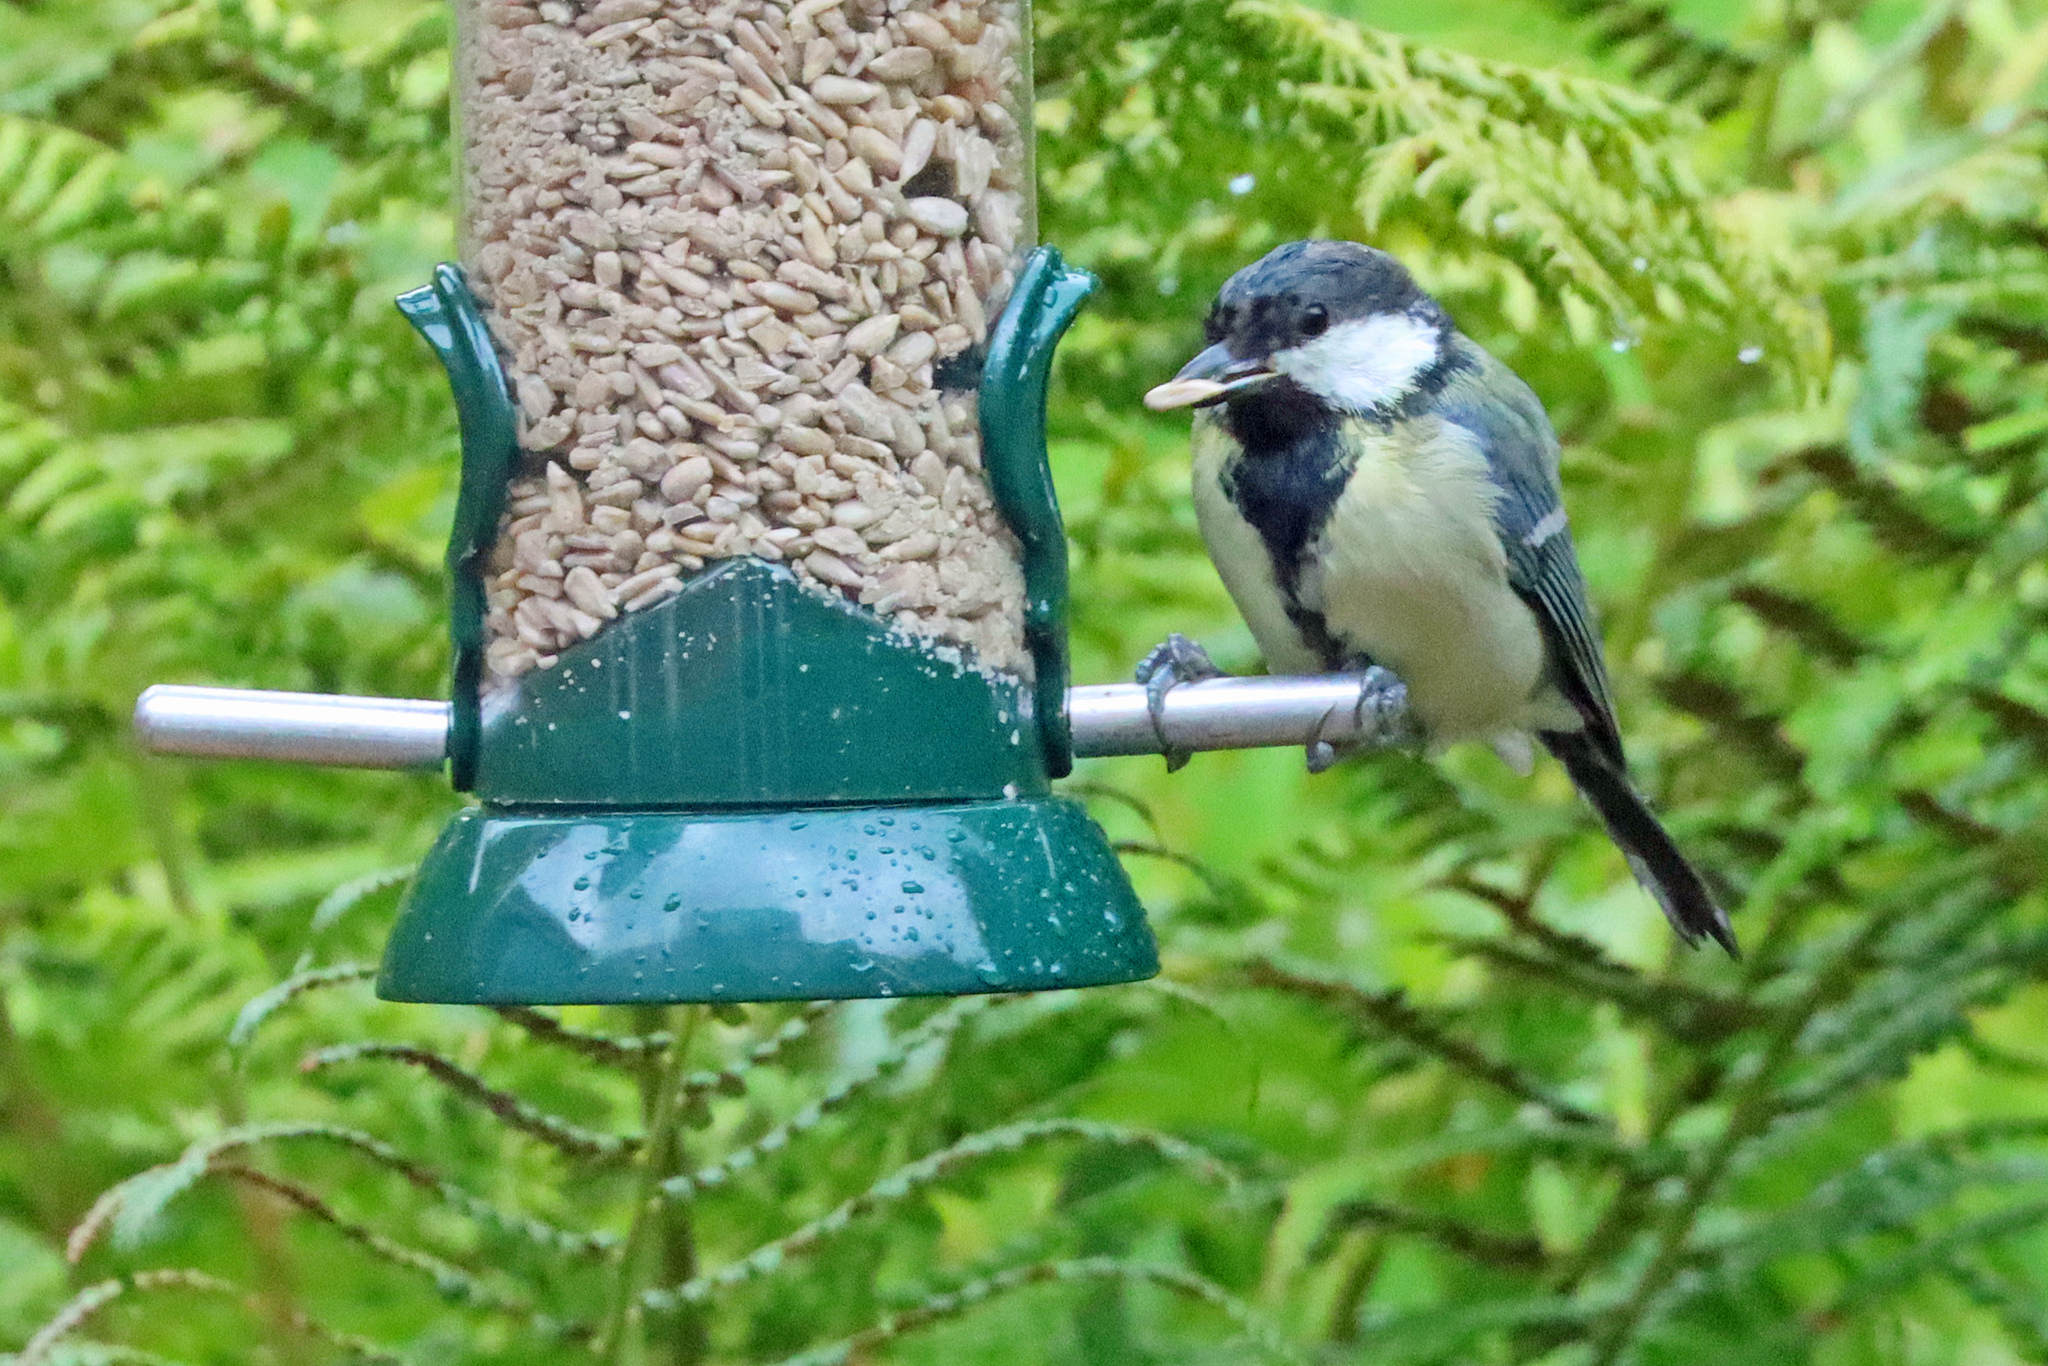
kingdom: Animalia
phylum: Chordata
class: Aves
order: Passeriformes
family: Paridae
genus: Parus
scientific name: Parus major
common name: Great tit
